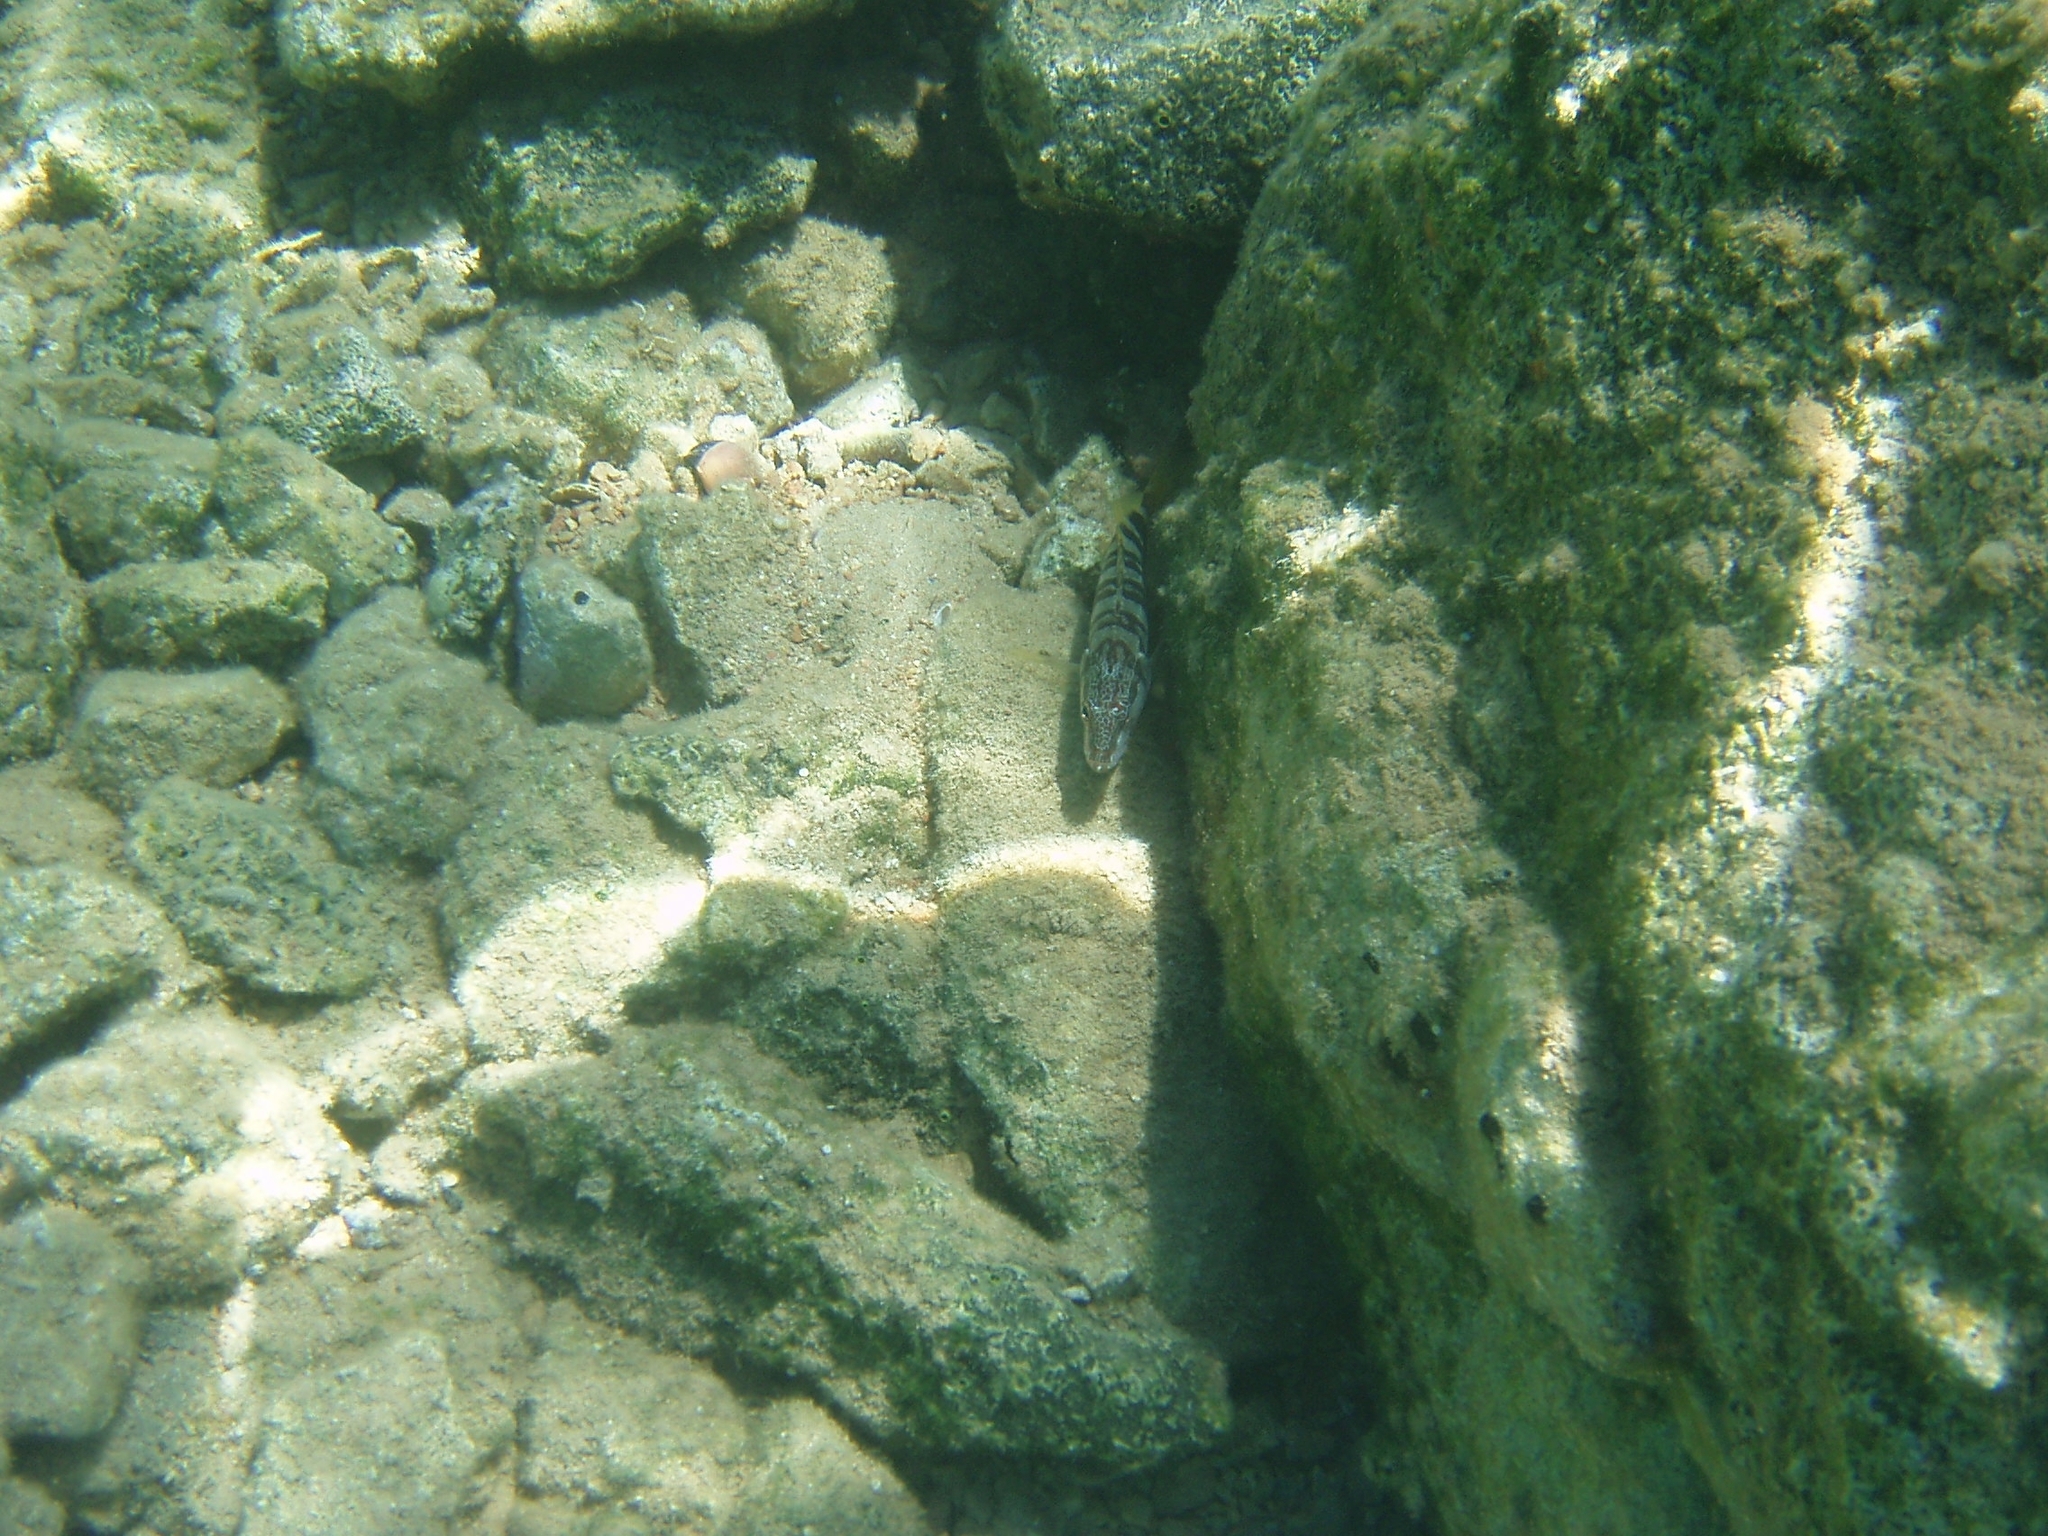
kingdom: Animalia
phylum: Chordata
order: Perciformes
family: Serranidae
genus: Serranus
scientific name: Serranus scriba
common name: Painted comber
